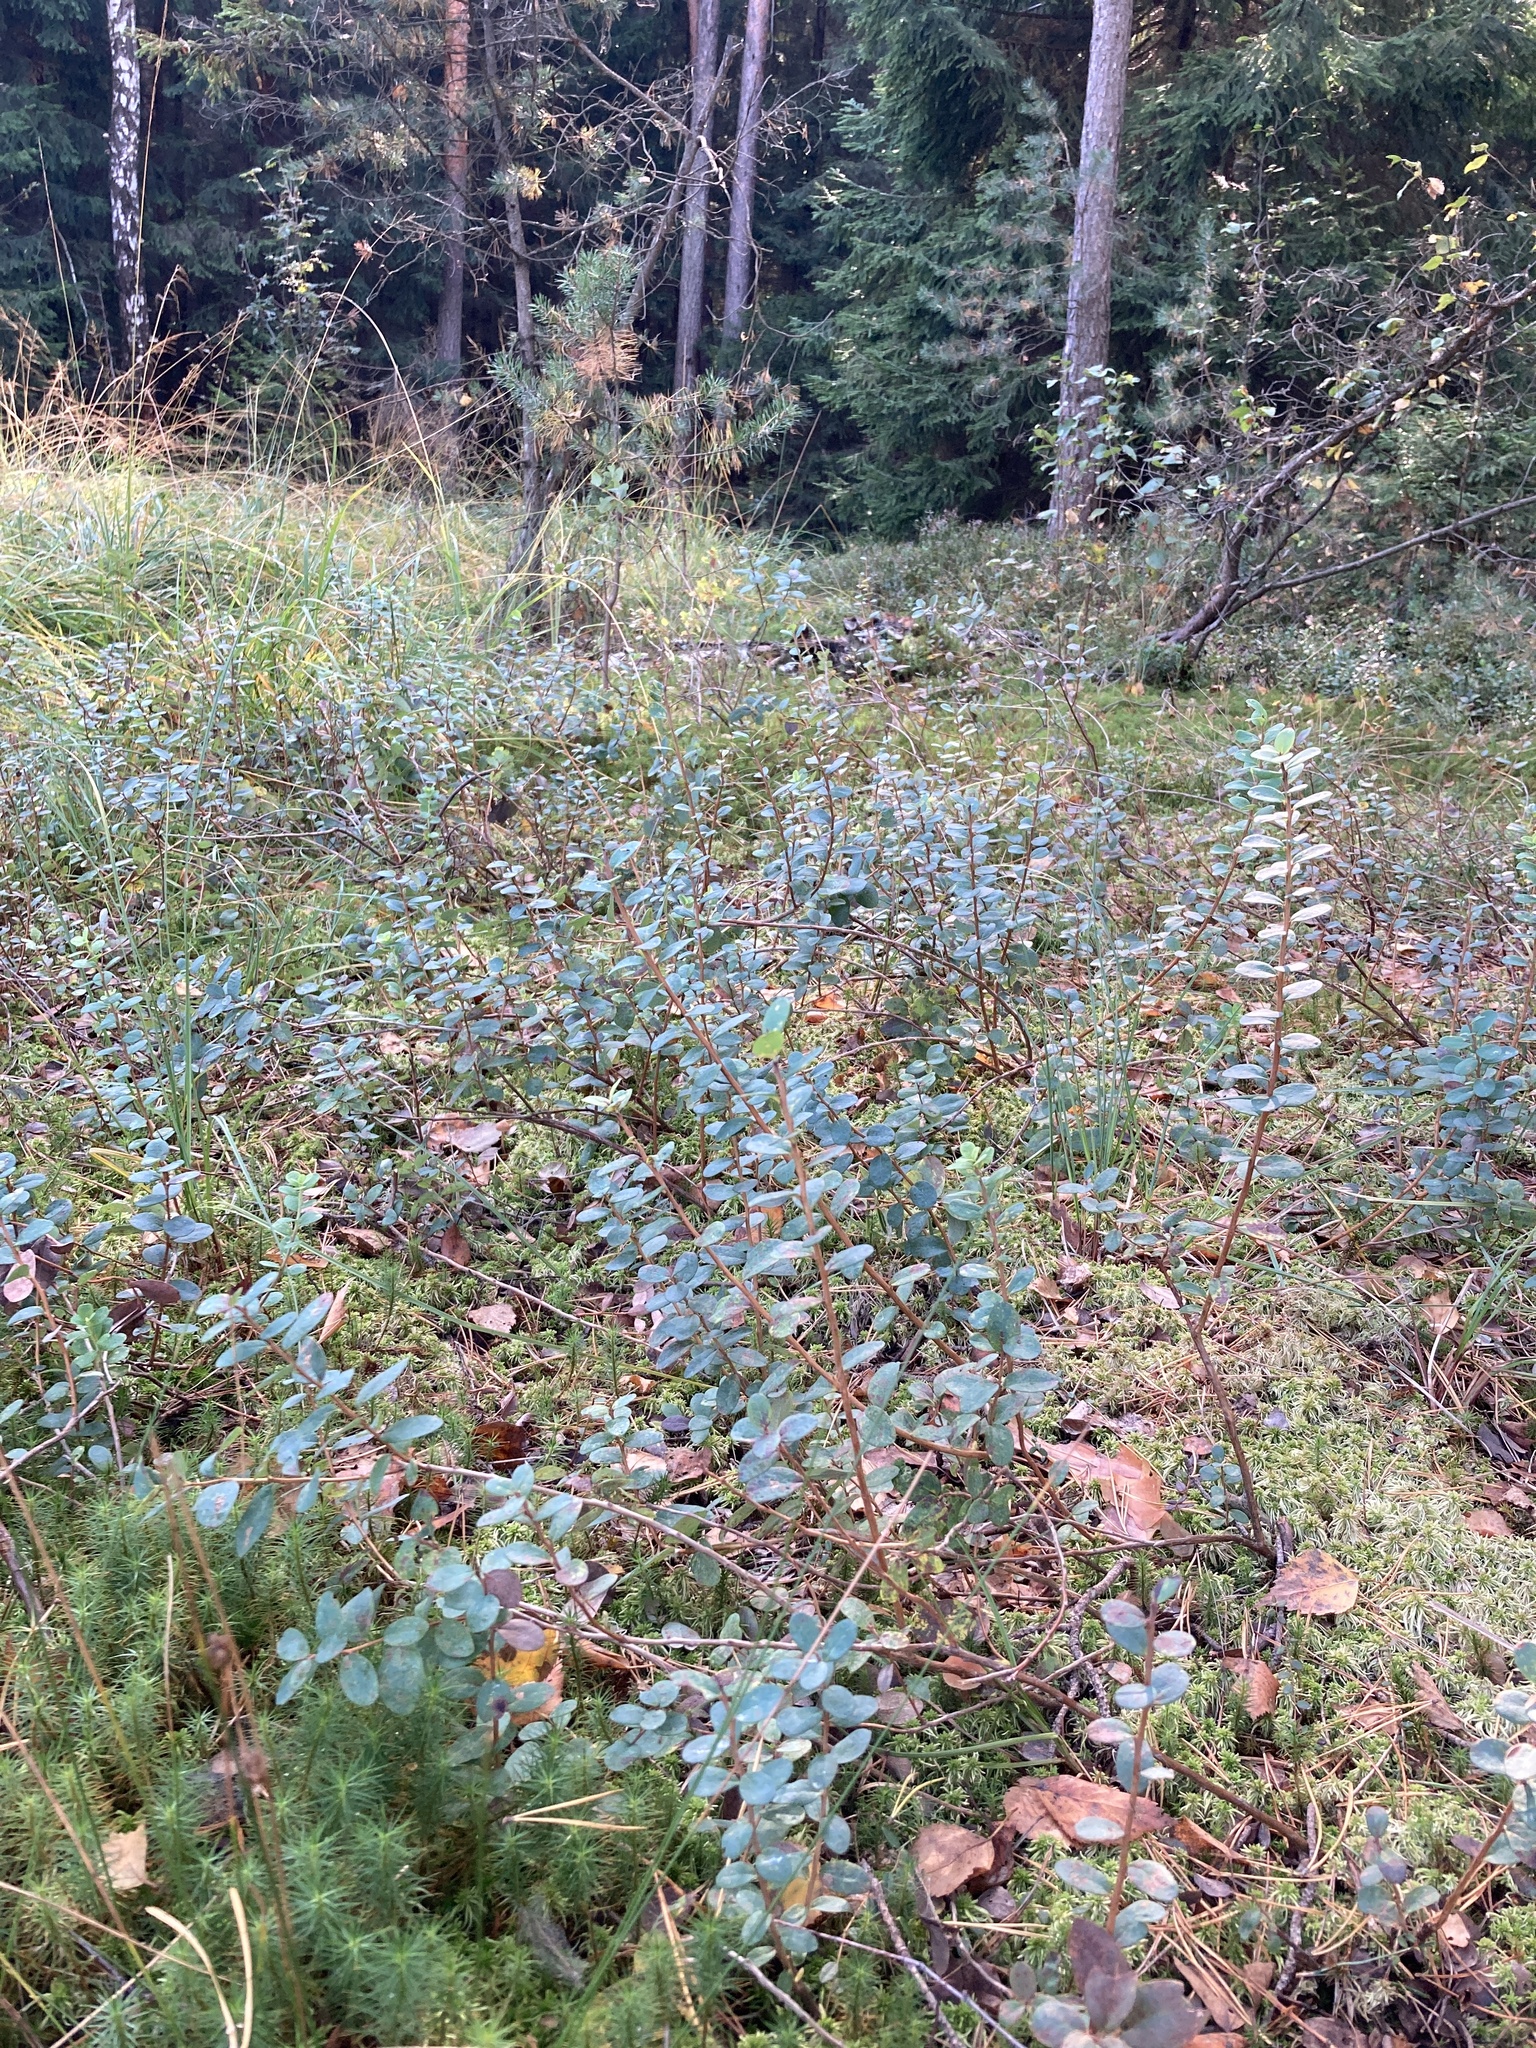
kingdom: Plantae
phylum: Tracheophyta
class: Magnoliopsida
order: Ericales
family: Ericaceae
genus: Vaccinium
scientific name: Vaccinium uliginosum
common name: Bog bilberry
